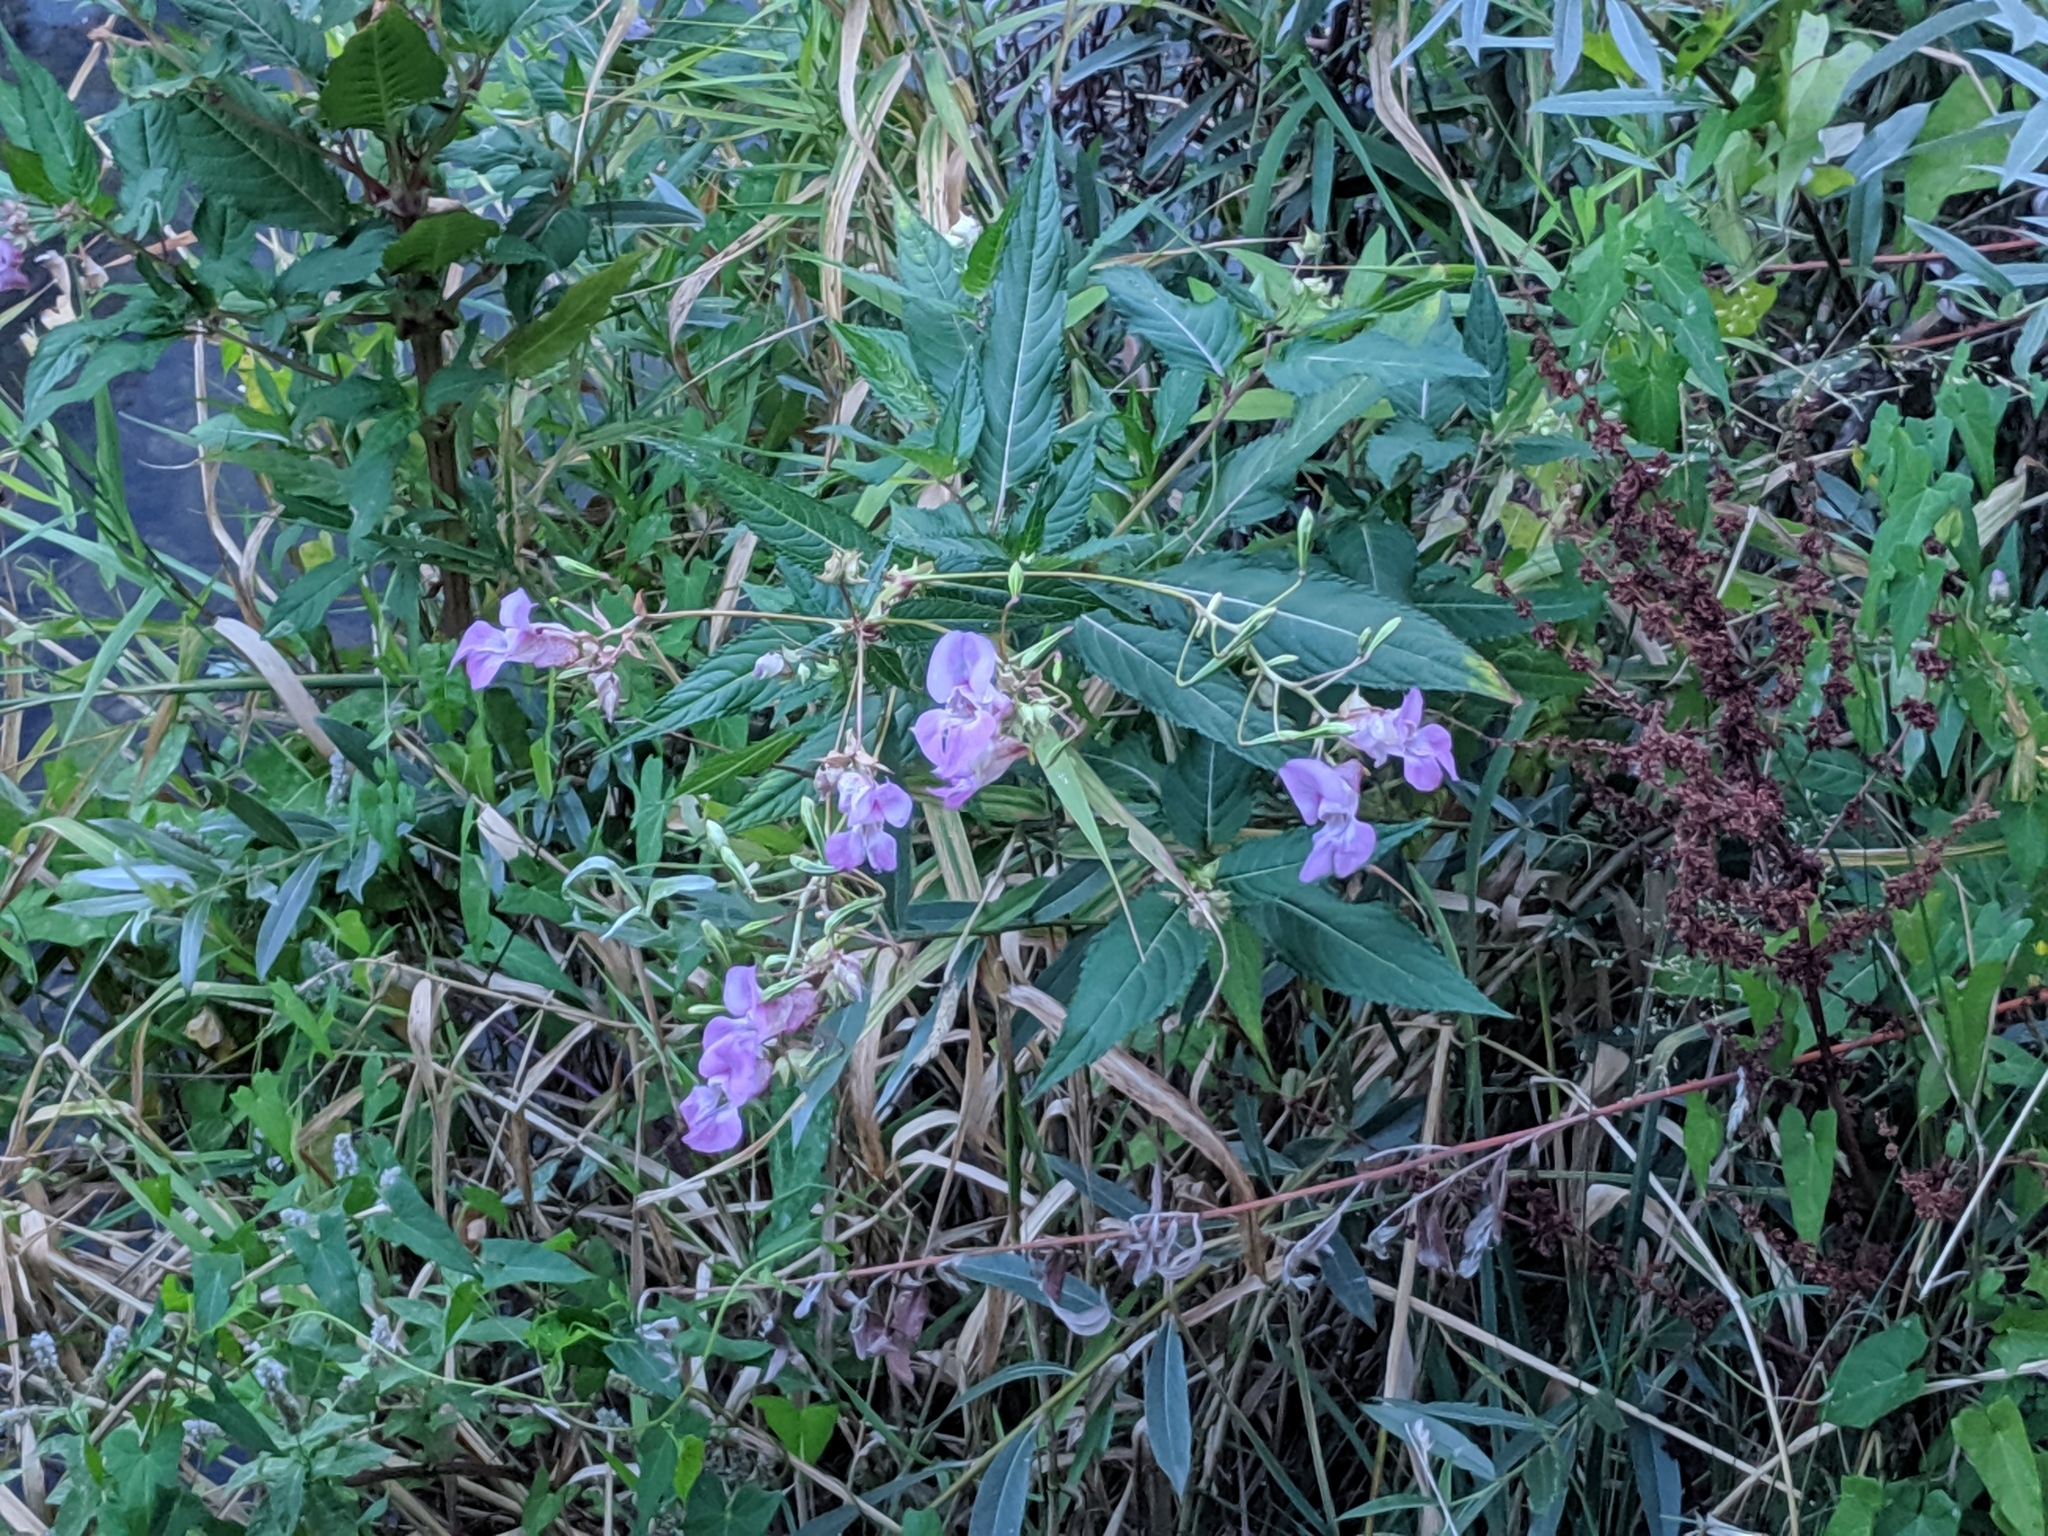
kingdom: Plantae
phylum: Tracheophyta
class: Magnoliopsida
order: Ericales
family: Balsaminaceae
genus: Impatiens
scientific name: Impatiens glandulifera
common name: Himalayan balsam
